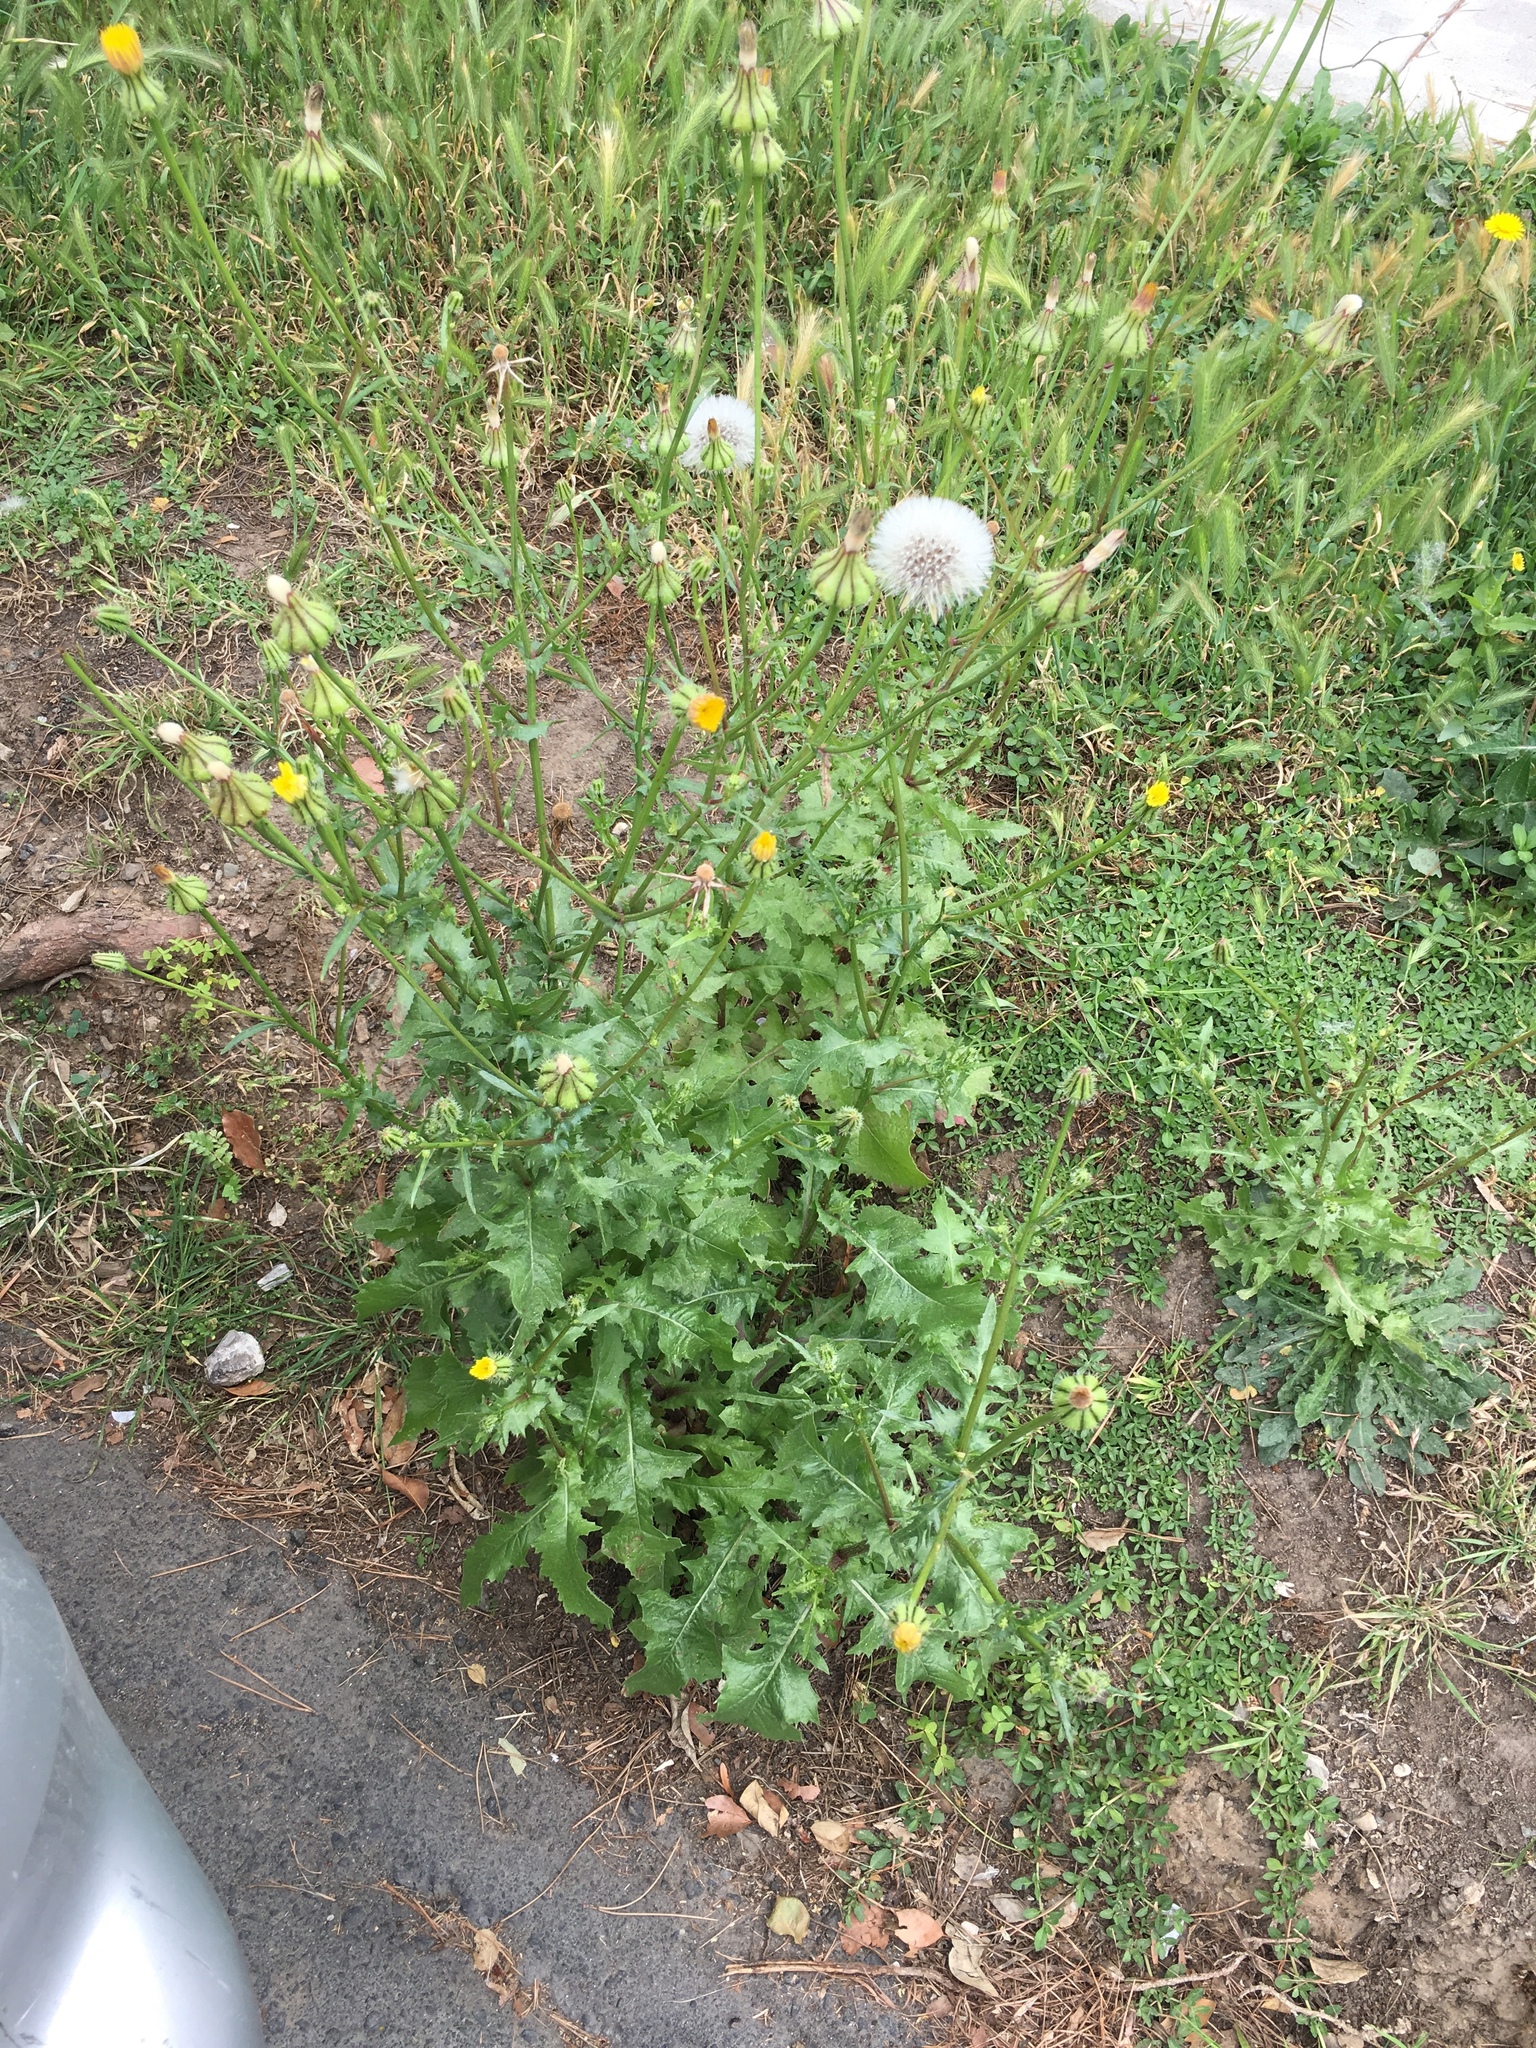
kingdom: Plantae
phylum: Tracheophyta
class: Magnoliopsida
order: Asterales
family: Asteraceae
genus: Urospermum
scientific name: Urospermum picroides
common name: False hawkbit
